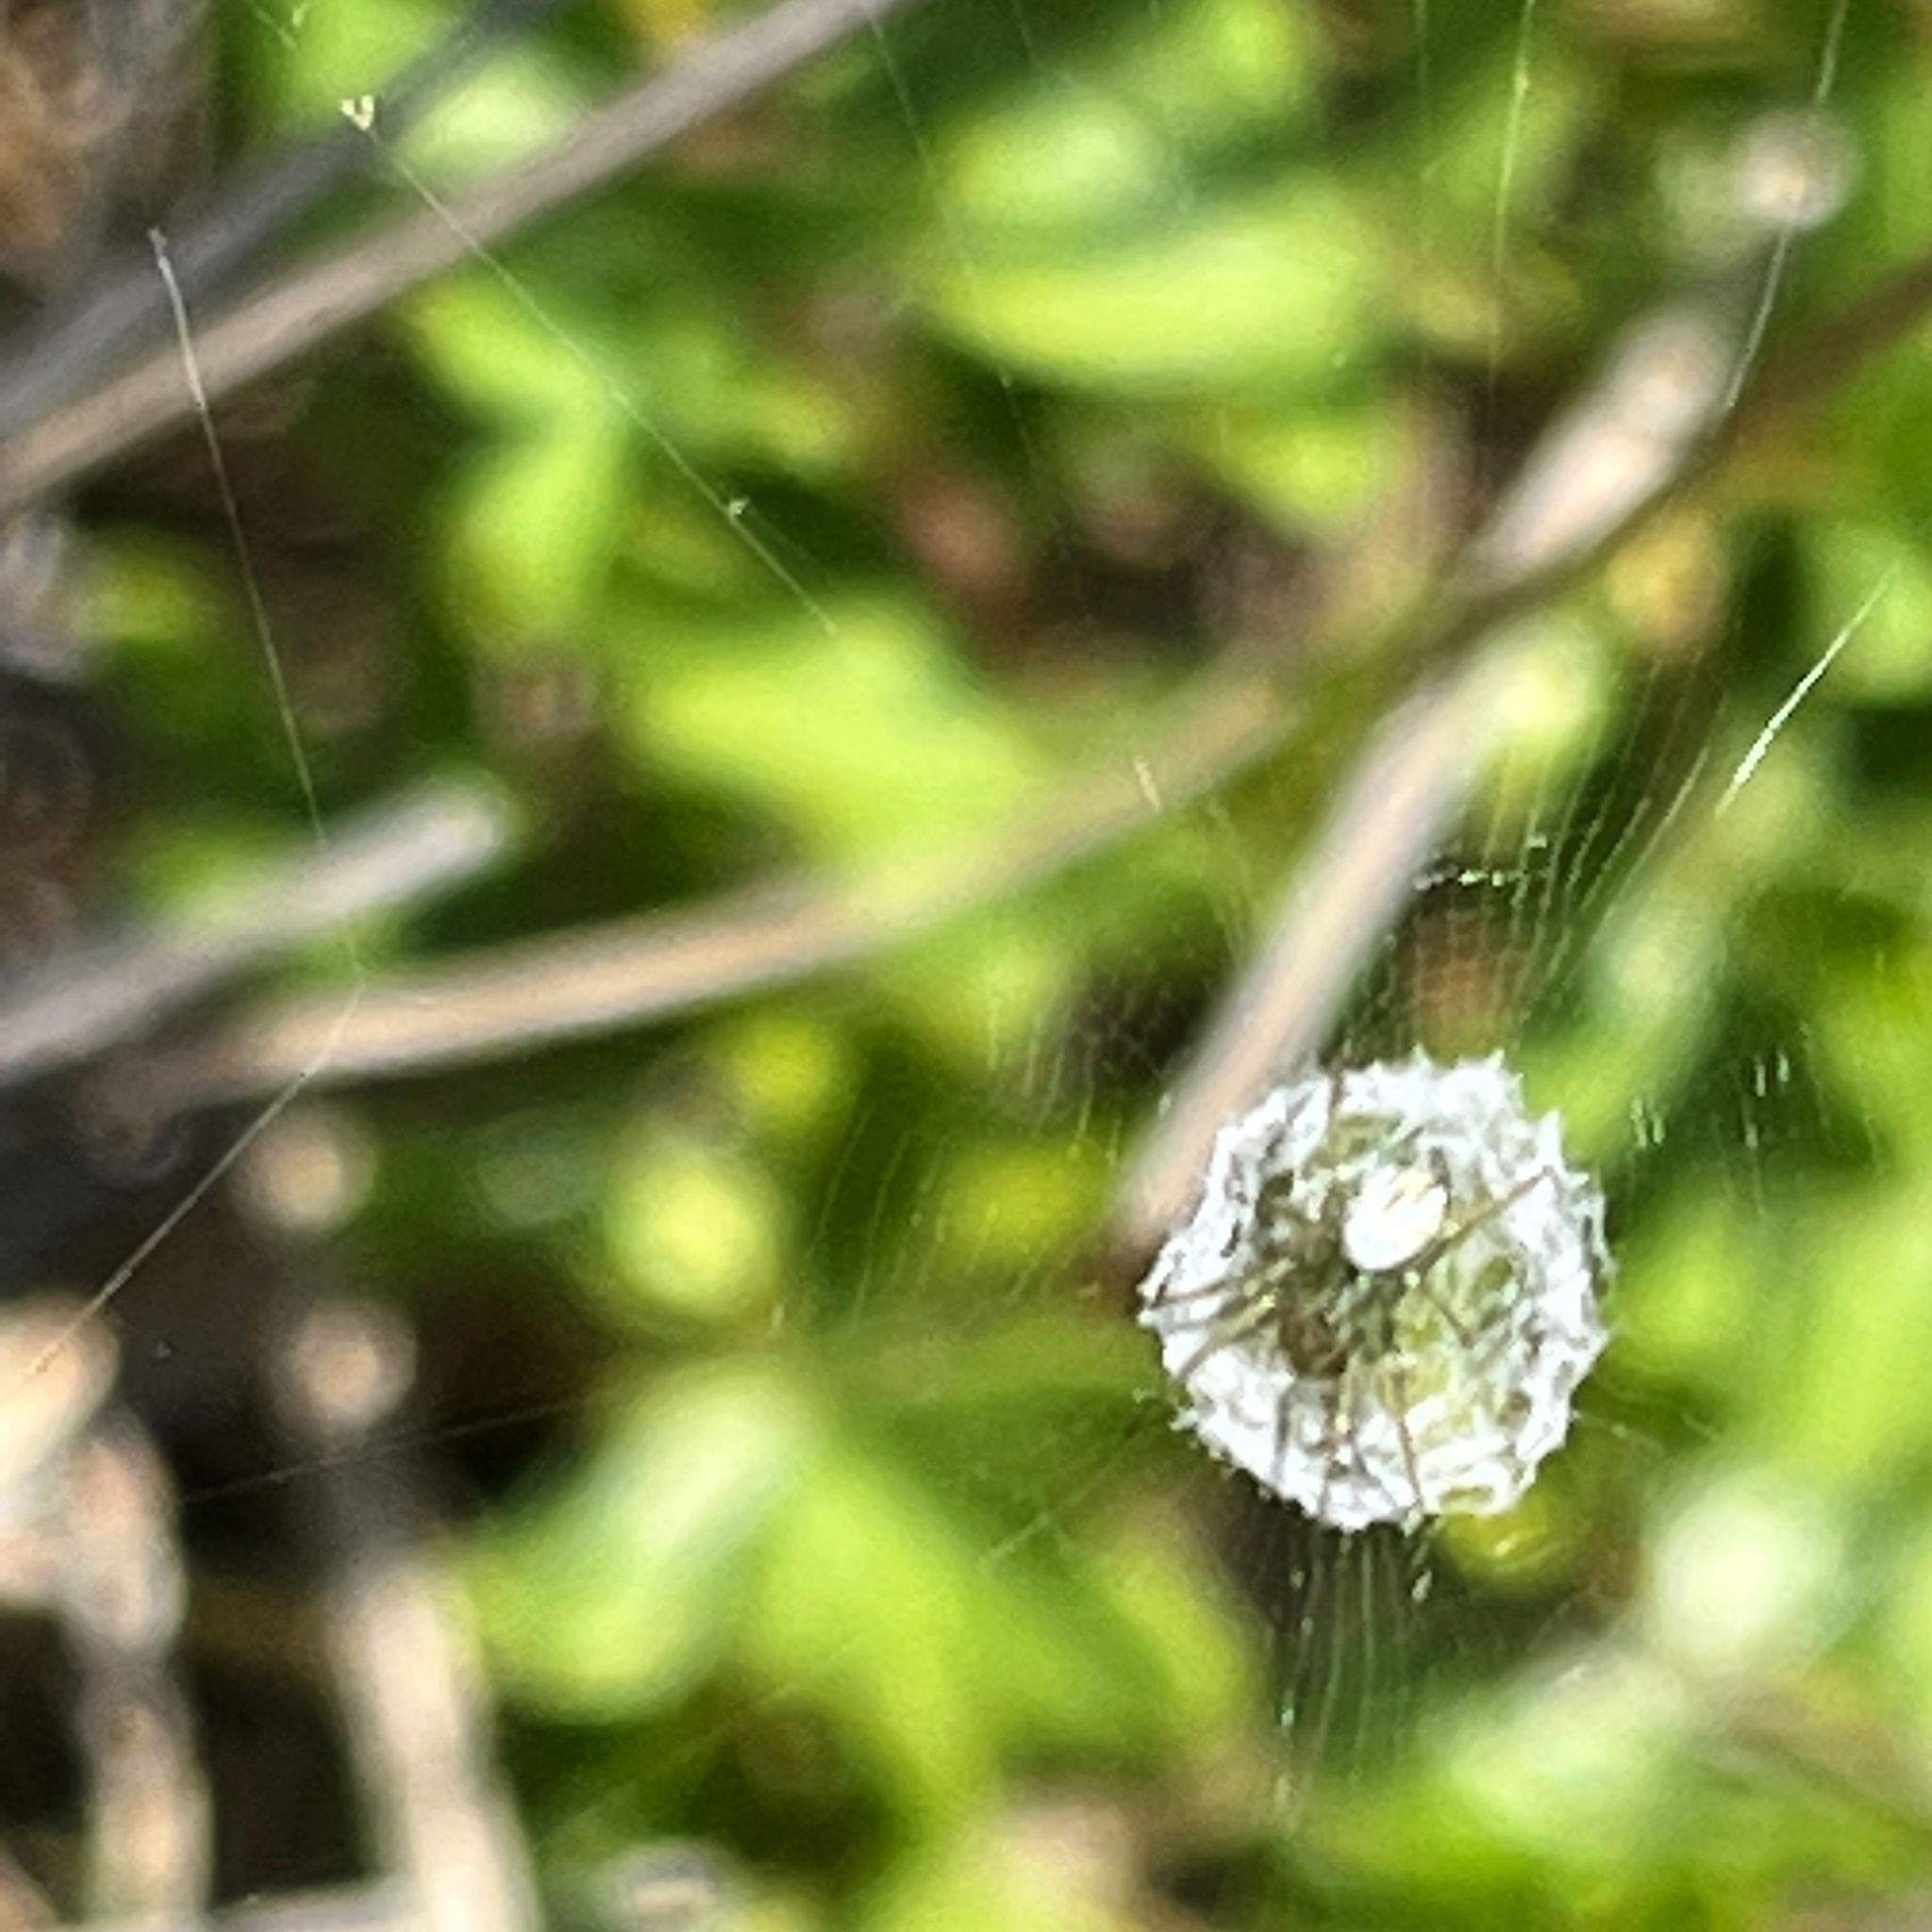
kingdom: Animalia
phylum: Arthropoda
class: Arachnida
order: Araneae
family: Araneidae
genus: Mangora
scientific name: Mangora gibberosa
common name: Lined orbweaver
